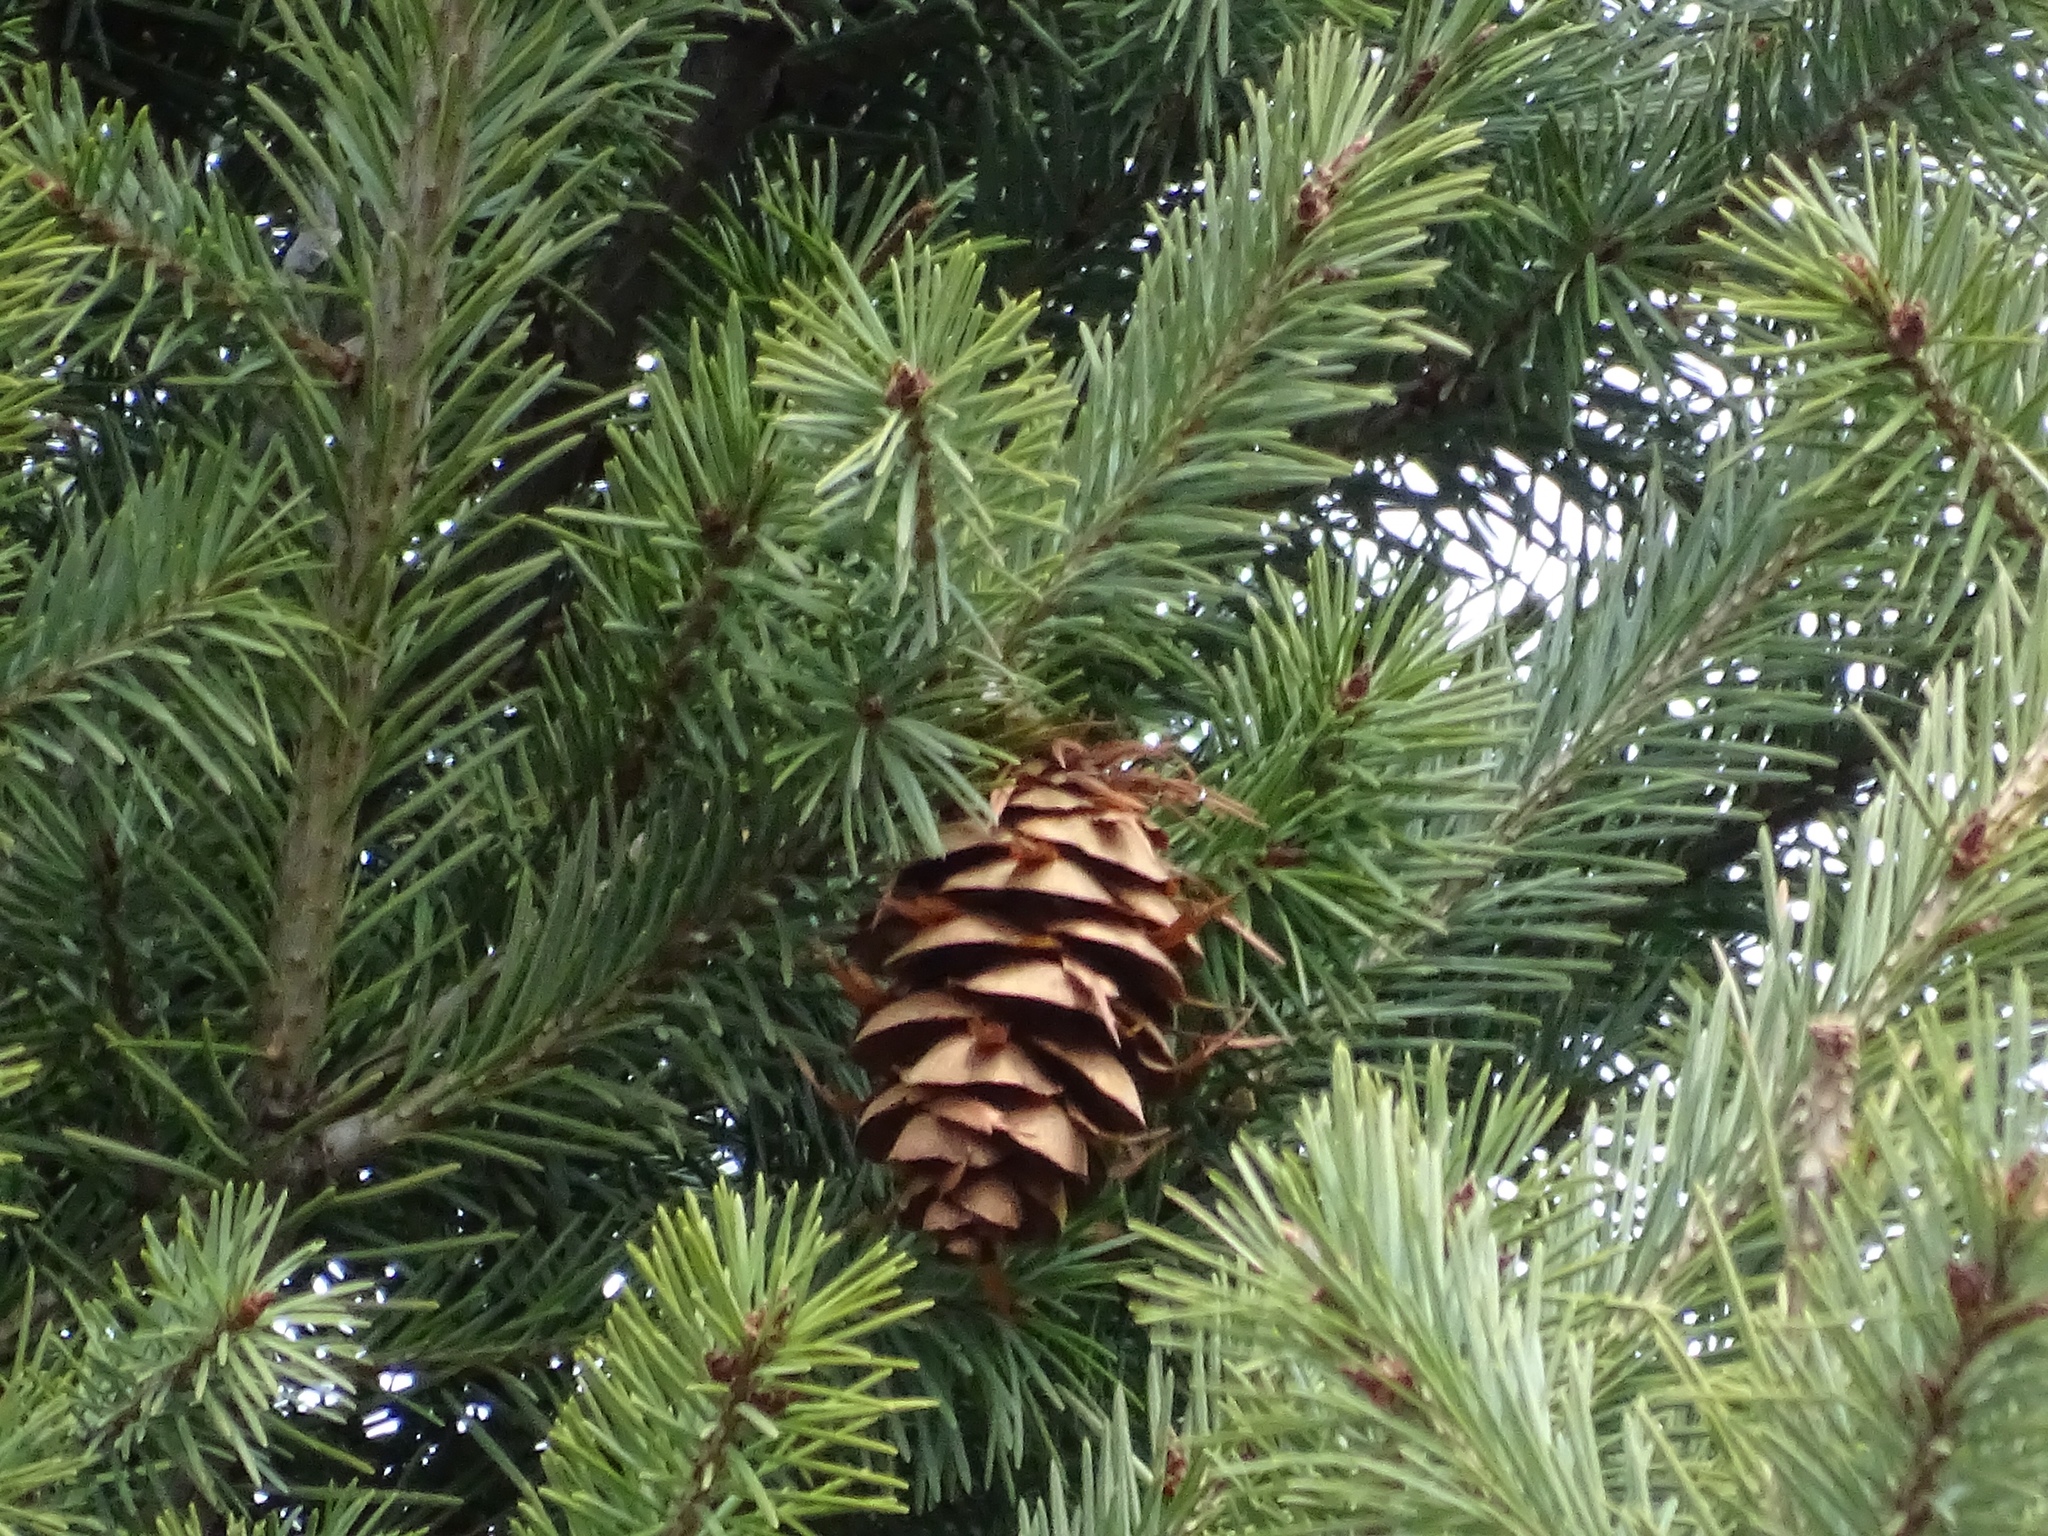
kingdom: Plantae
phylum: Tracheophyta
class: Pinopsida
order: Pinales
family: Pinaceae
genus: Pseudotsuga
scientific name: Pseudotsuga menziesii
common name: Douglas fir
